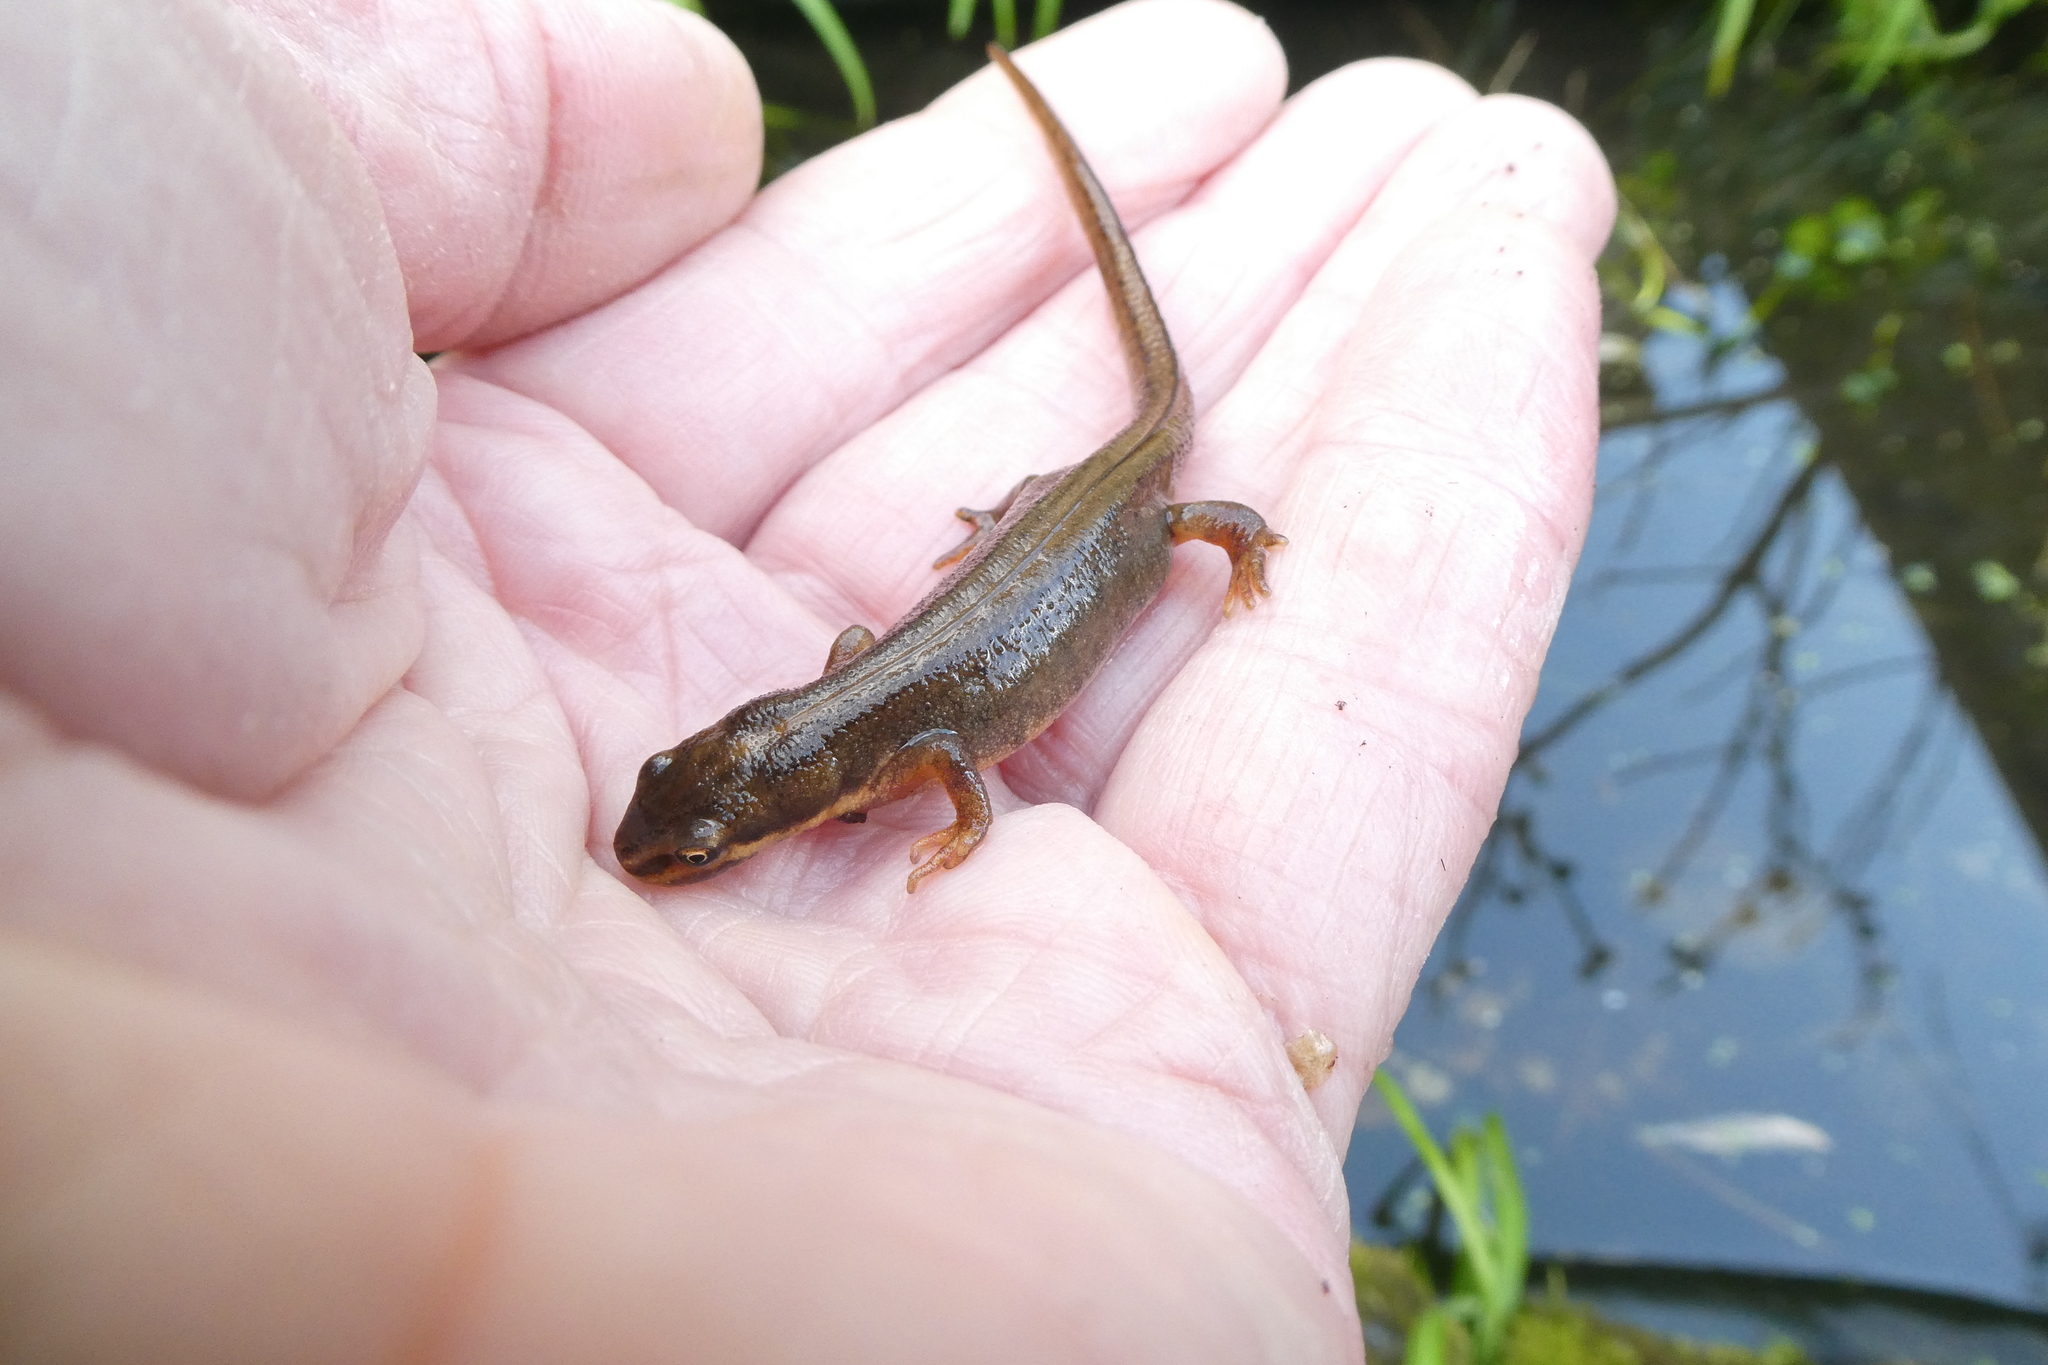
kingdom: Animalia
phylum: Chordata
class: Amphibia
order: Caudata
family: Salamandridae
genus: Lissotriton
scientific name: Lissotriton vulgaris
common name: Smooth newt
